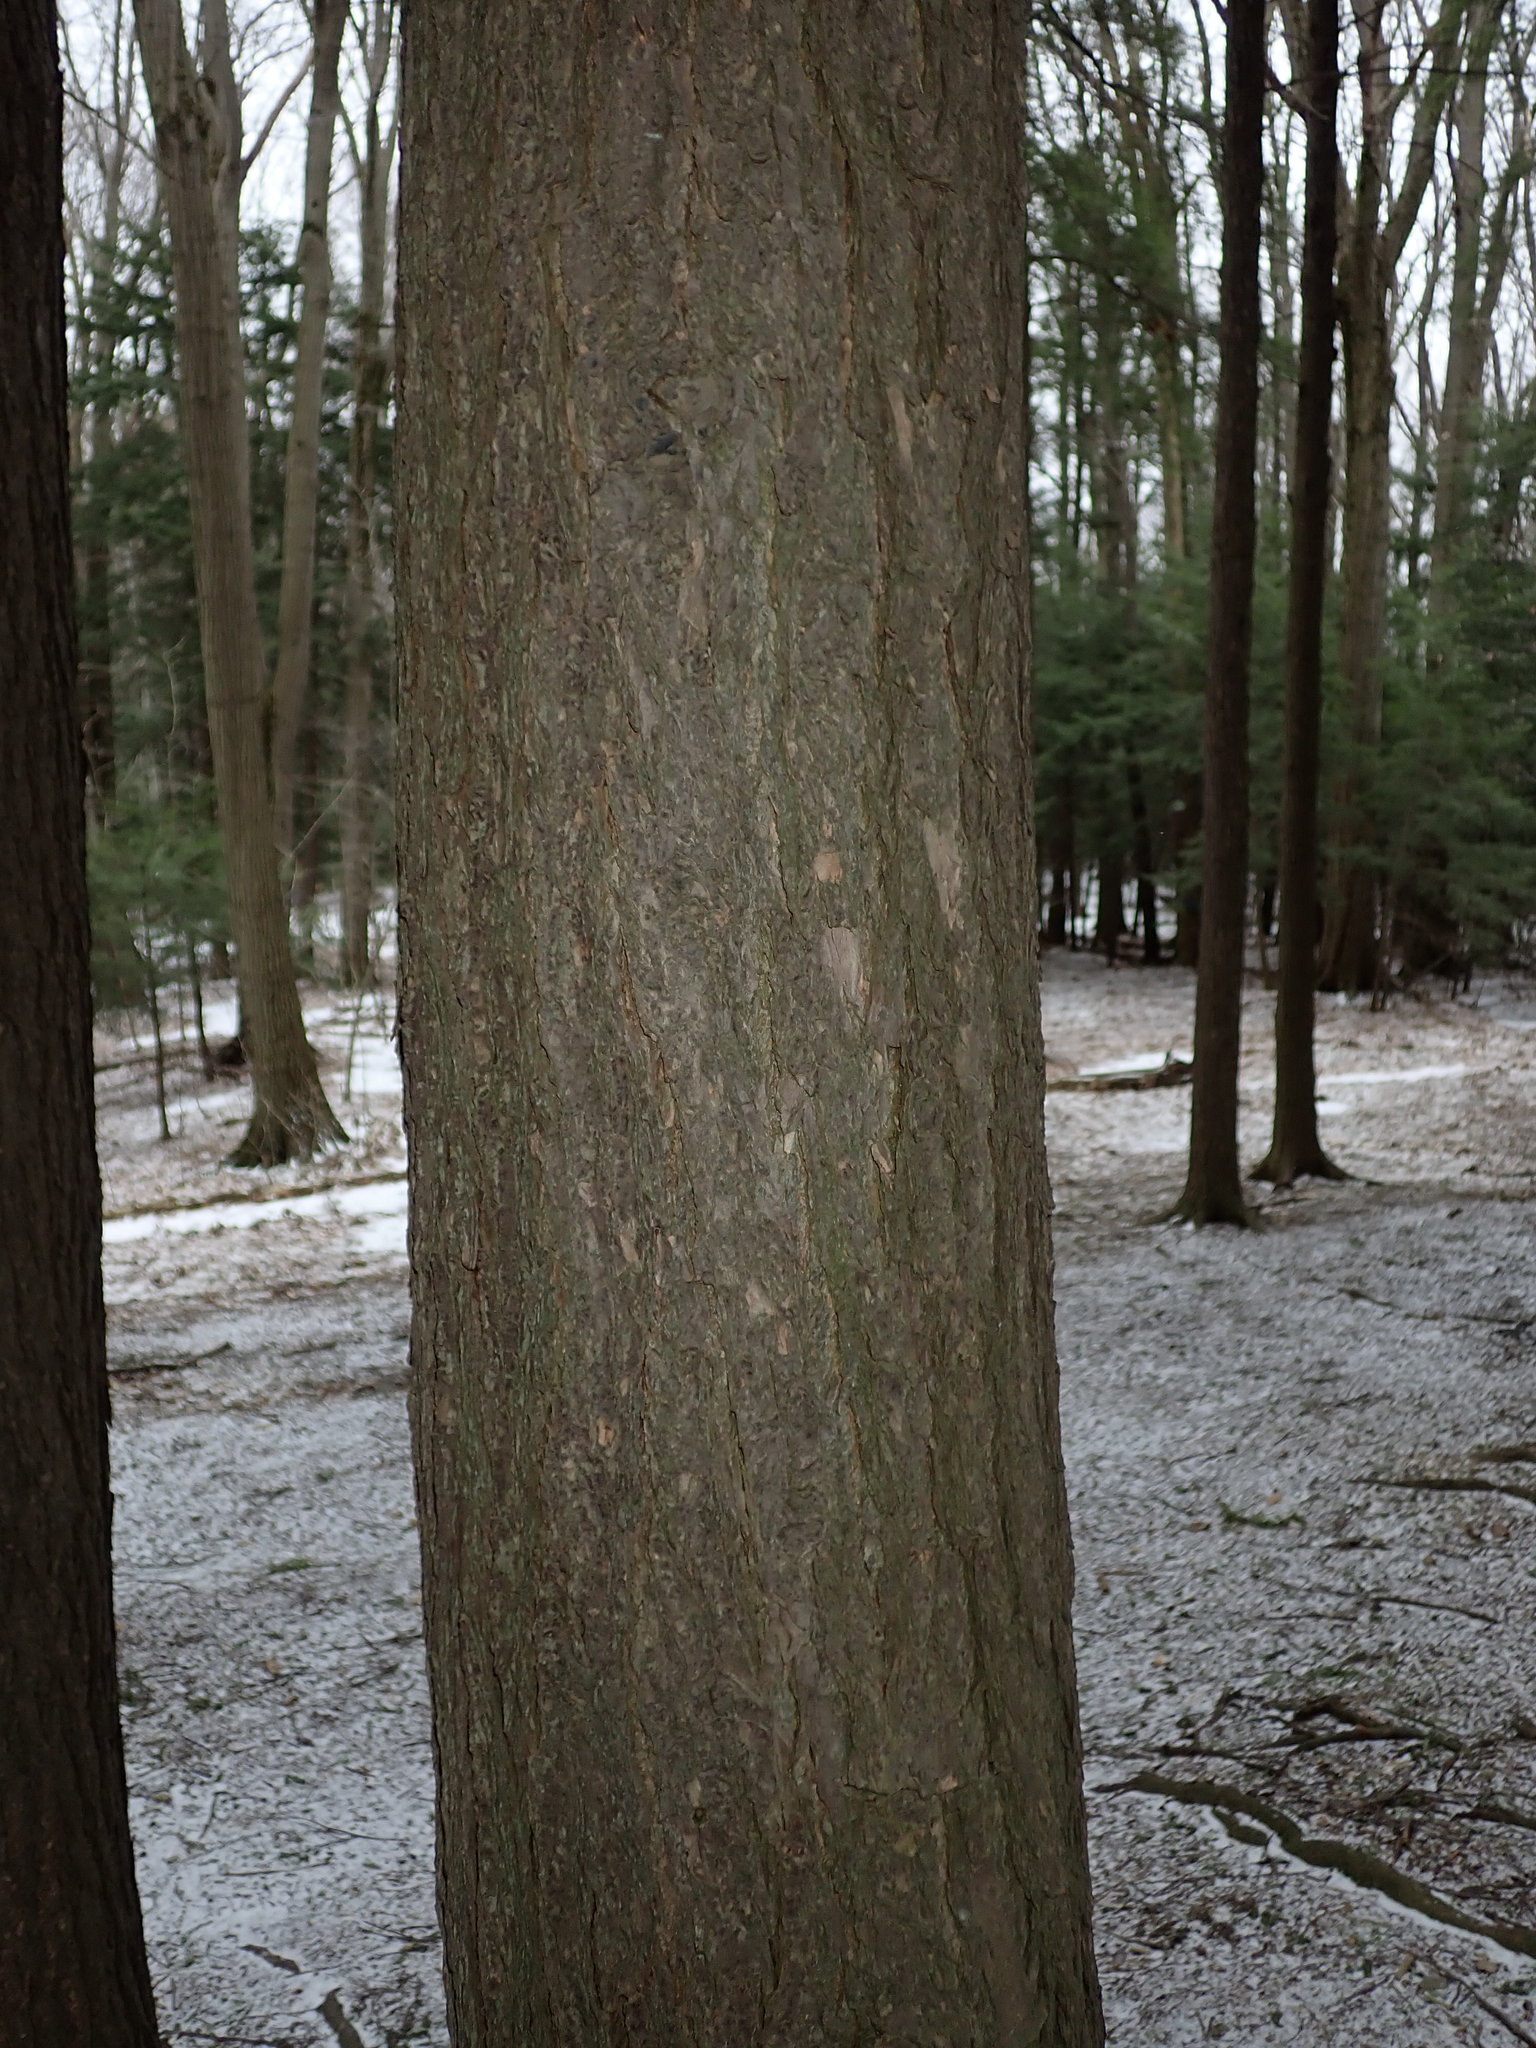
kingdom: Plantae
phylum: Tracheophyta
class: Pinopsida
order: Pinales
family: Pinaceae
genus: Tsuga
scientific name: Tsuga canadensis
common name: Eastern hemlock
